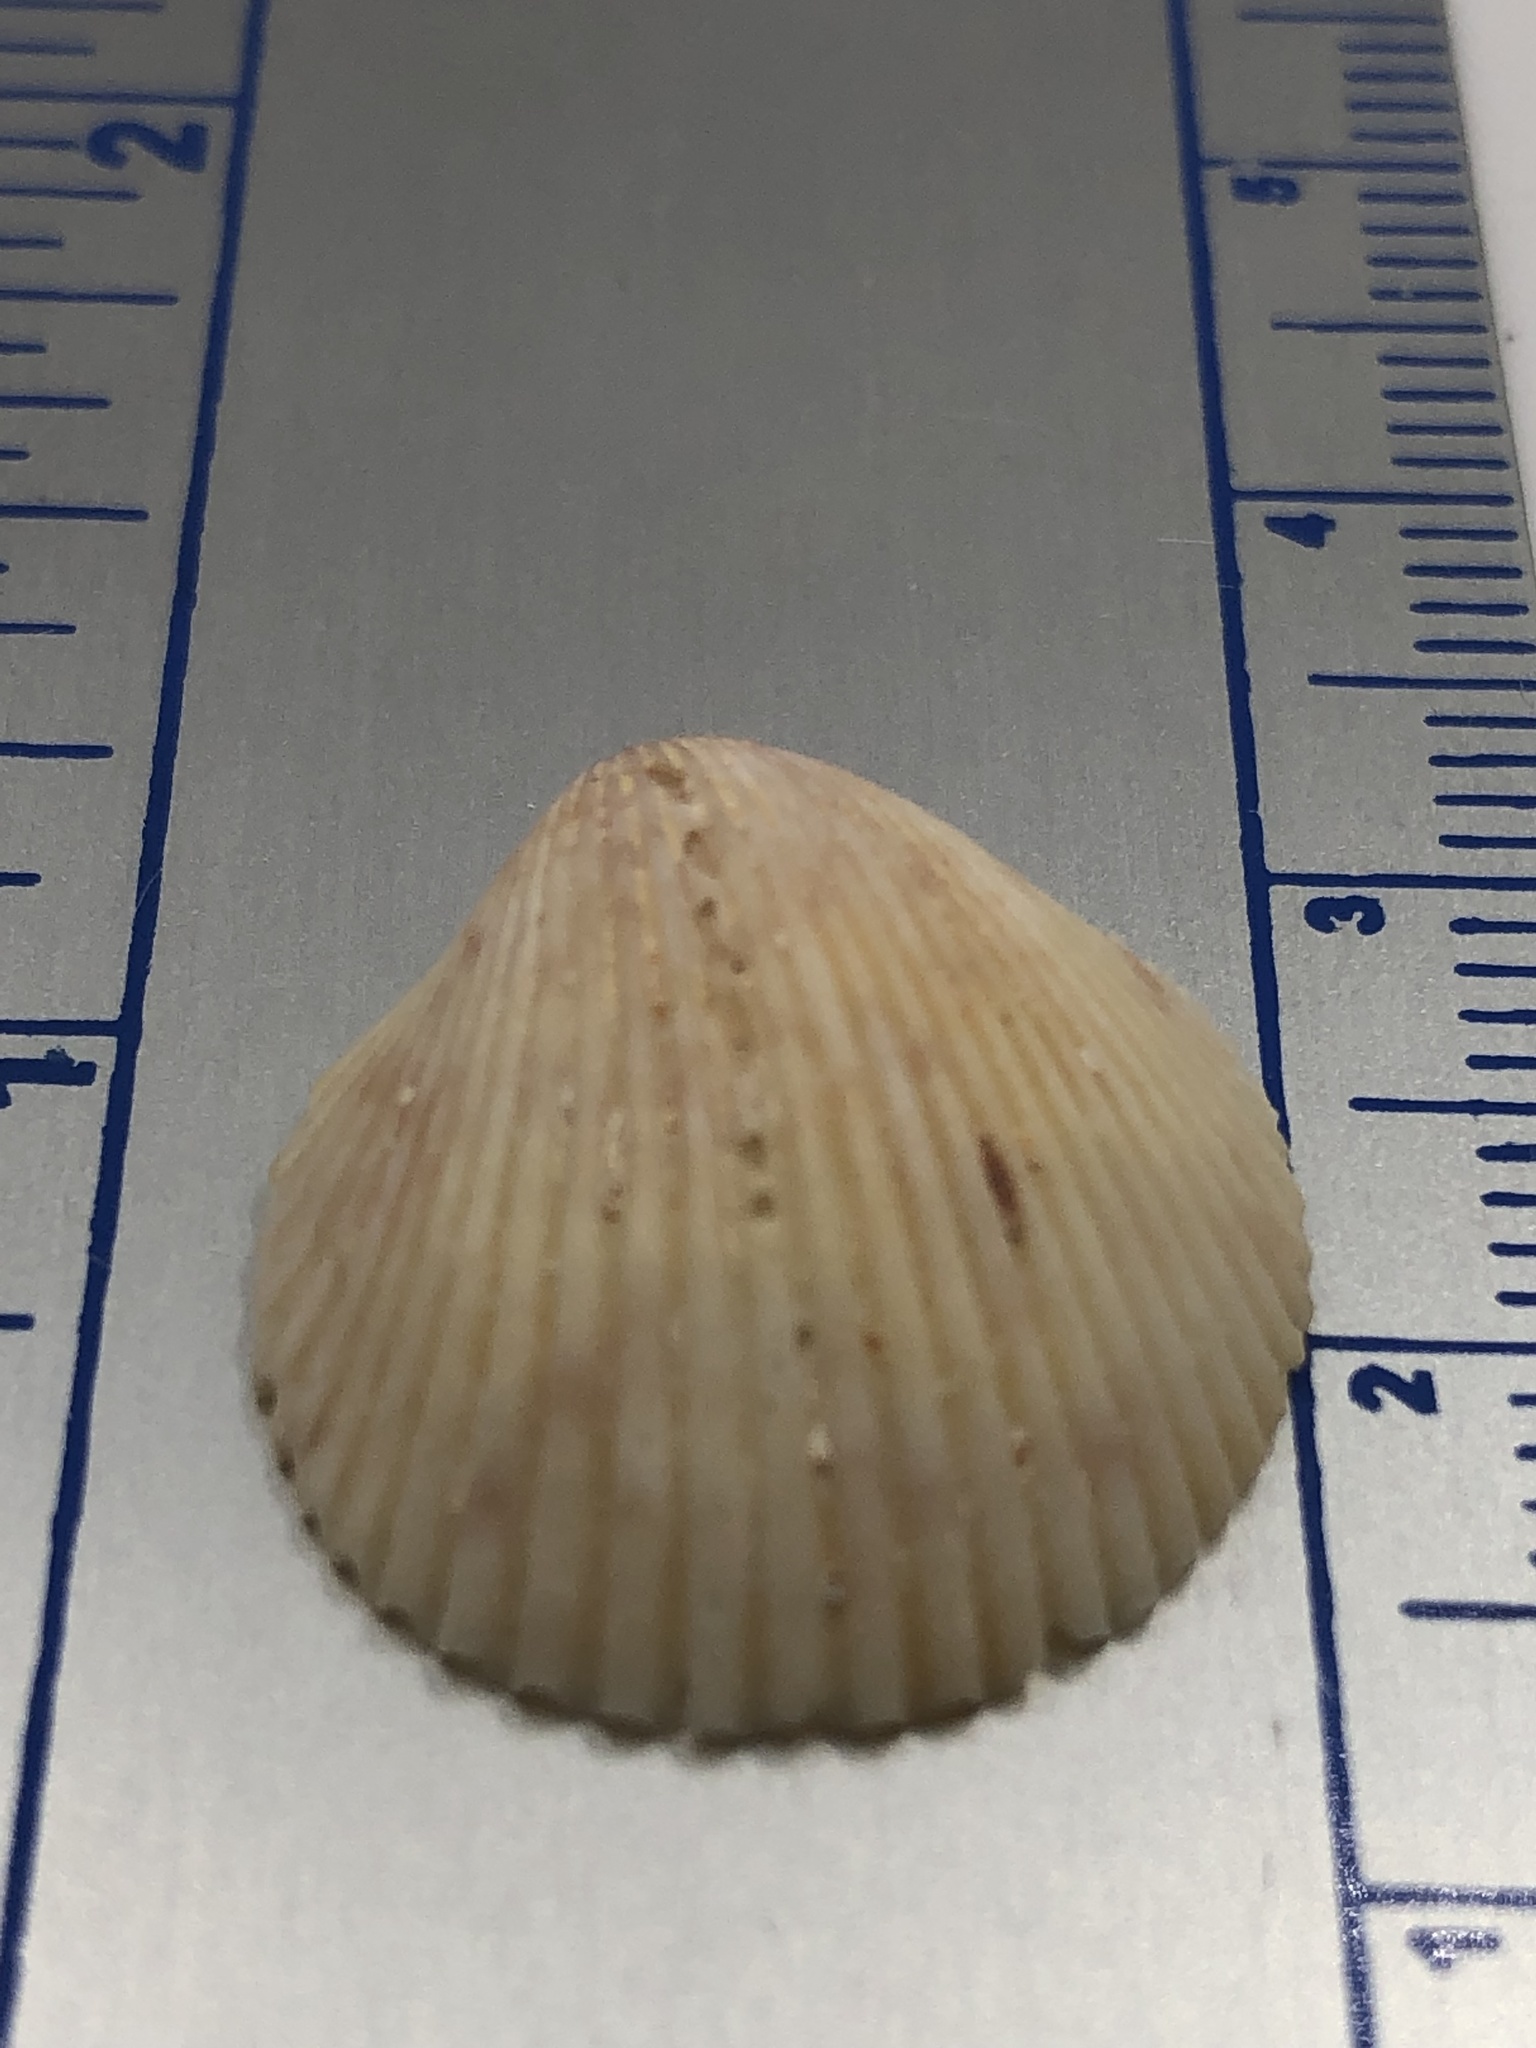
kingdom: Animalia
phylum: Mollusca
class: Bivalvia
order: Cardiida
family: Cardiidae
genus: Dallocardia
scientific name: Dallocardia muricata
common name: Yellow pricklycockle
